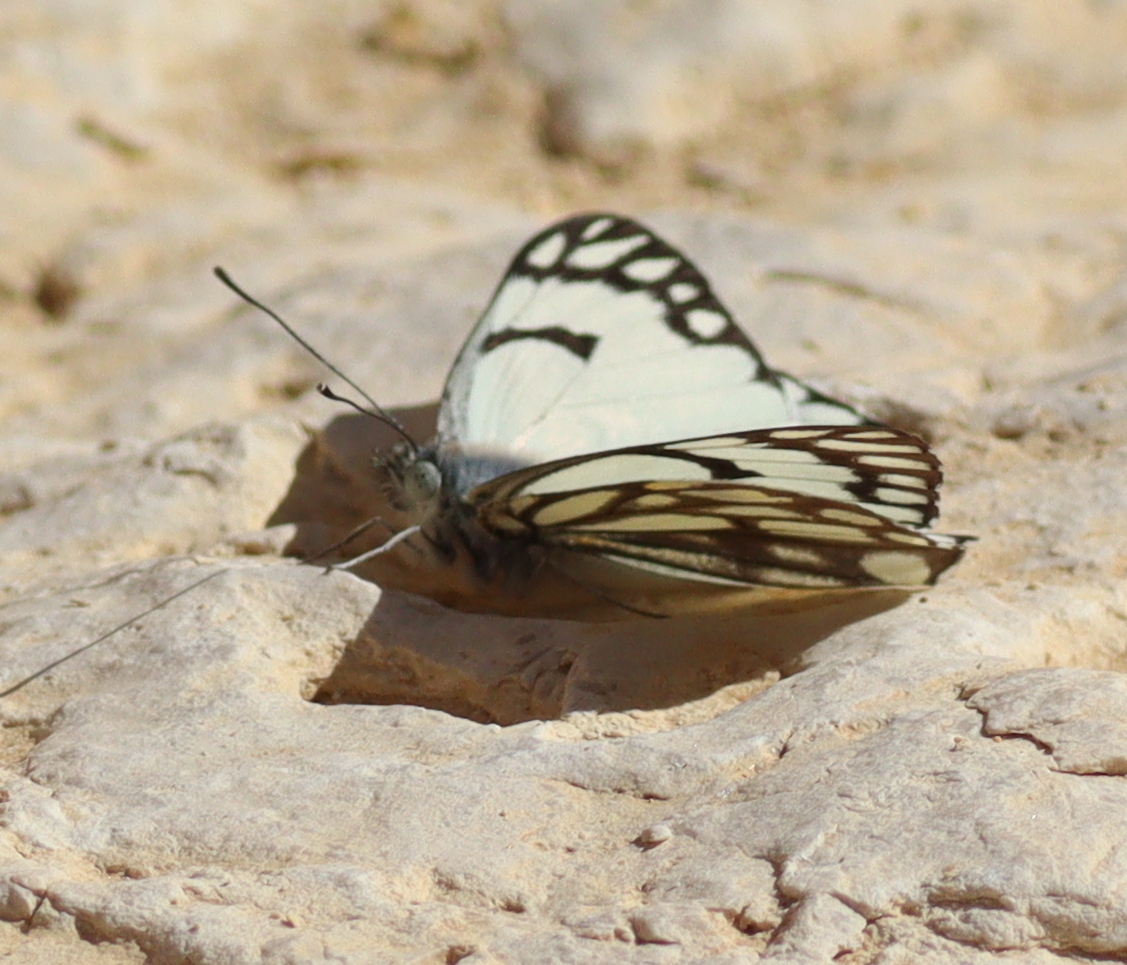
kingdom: Animalia
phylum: Arthropoda
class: Insecta
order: Lepidoptera
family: Pieridae
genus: Belenois
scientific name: Belenois aurota
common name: Brown-veined white
